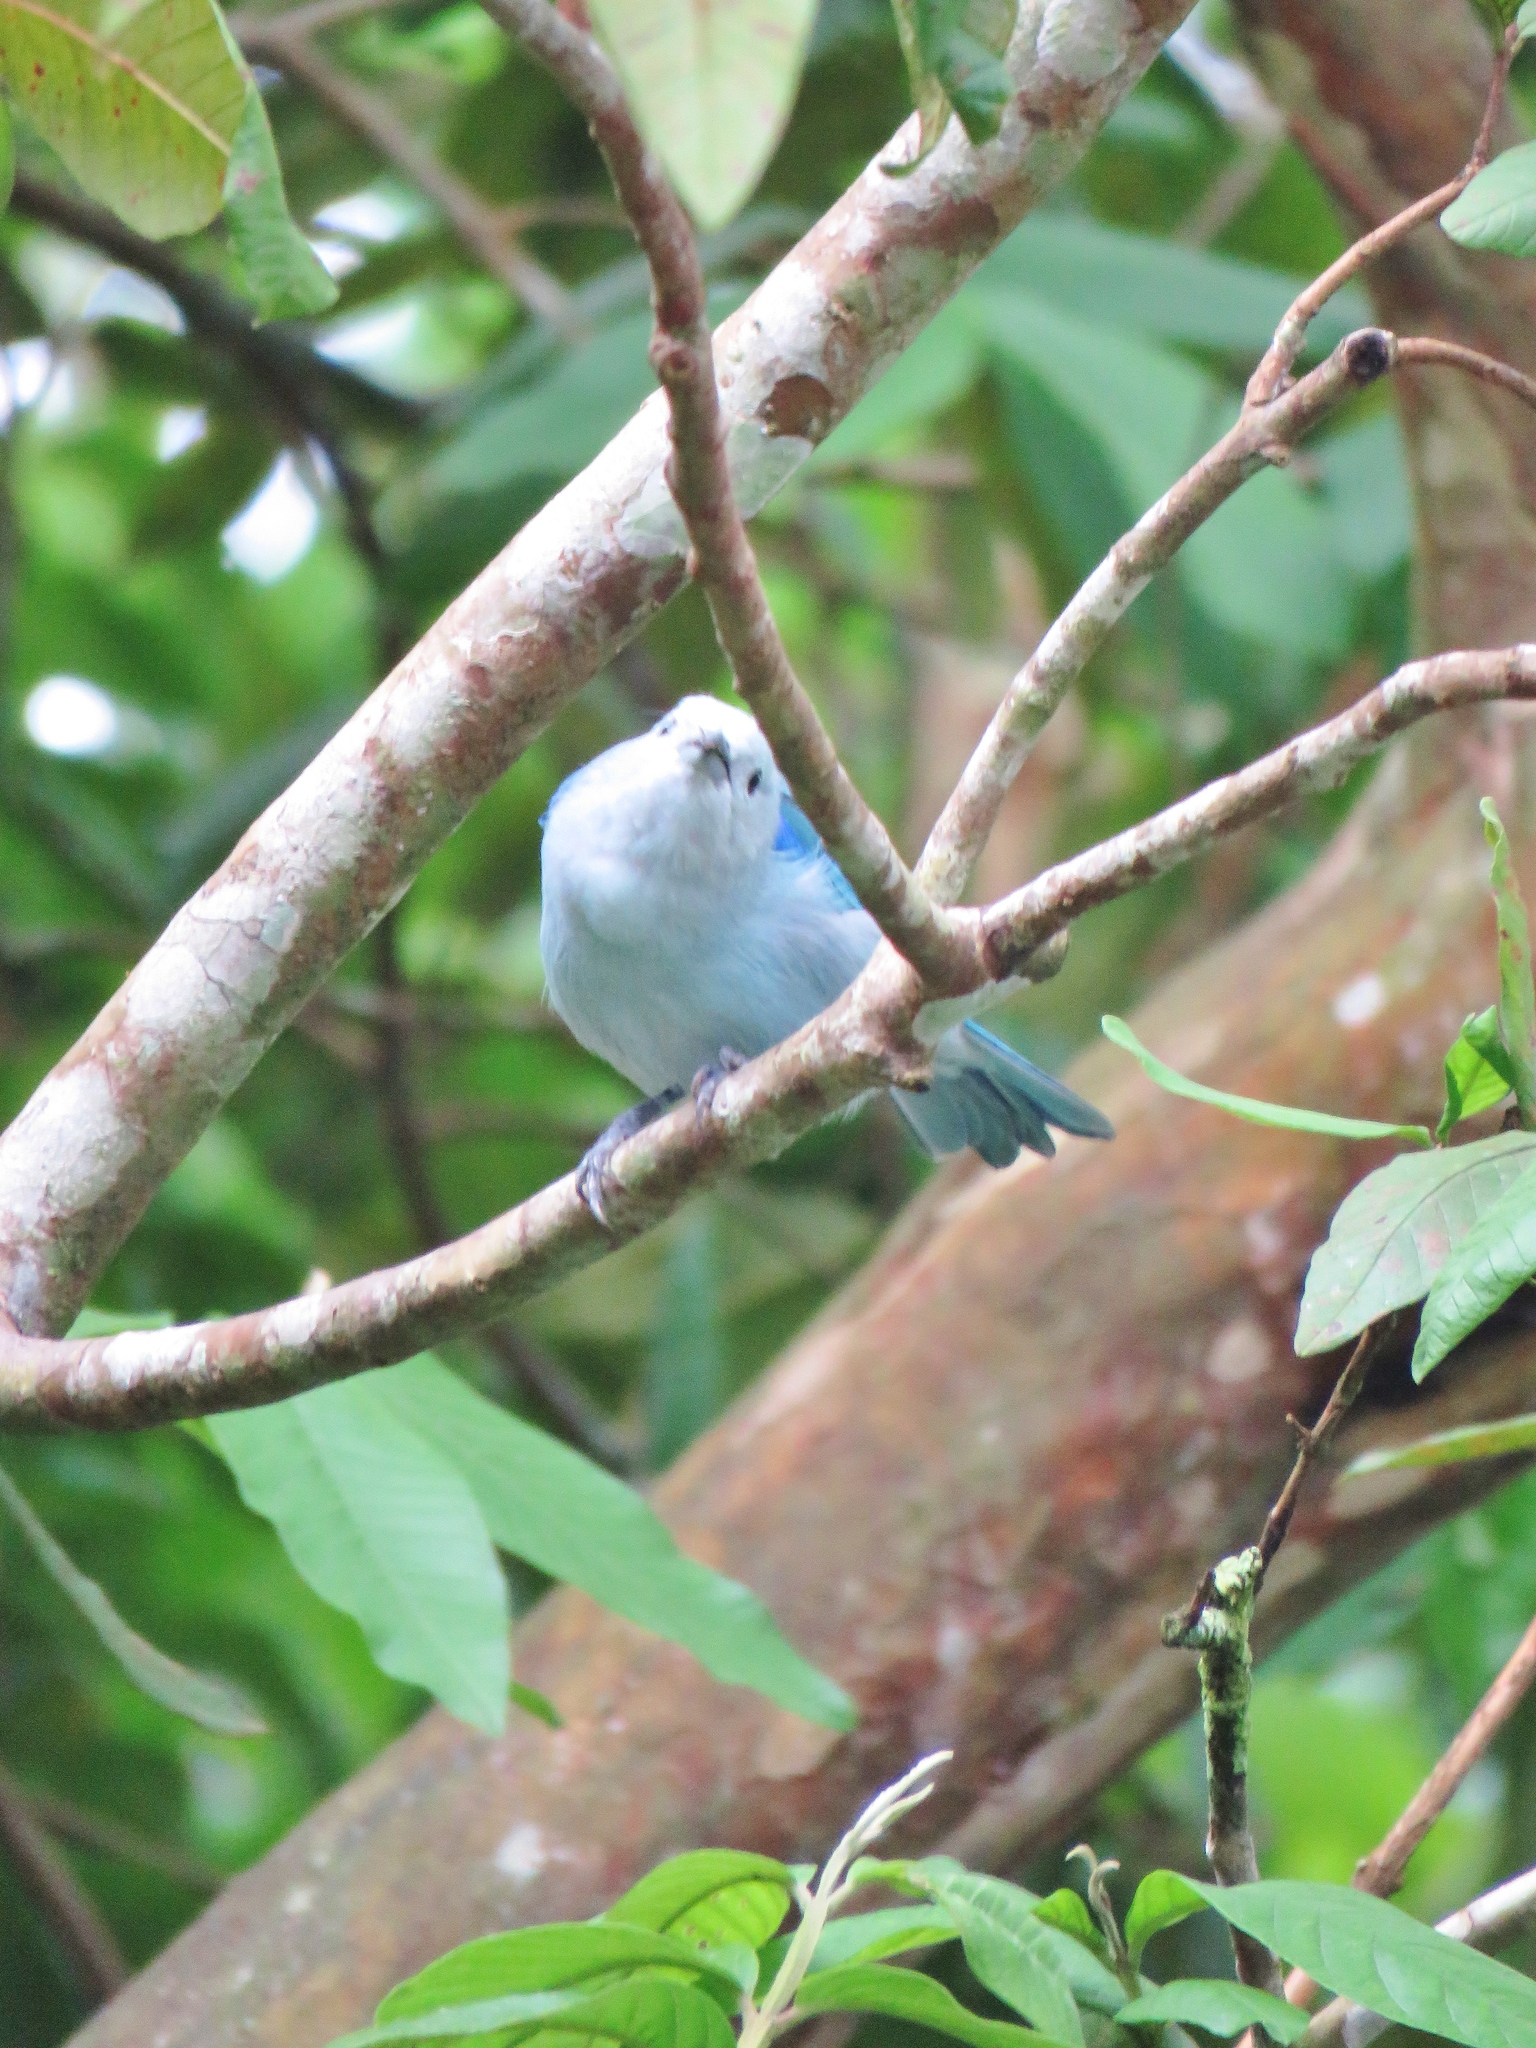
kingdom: Animalia
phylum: Chordata
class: Aves
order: Passeriformes
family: Thraupidae
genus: Thraupis
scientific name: Thraupis episcopus
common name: Blue-grey tanager
